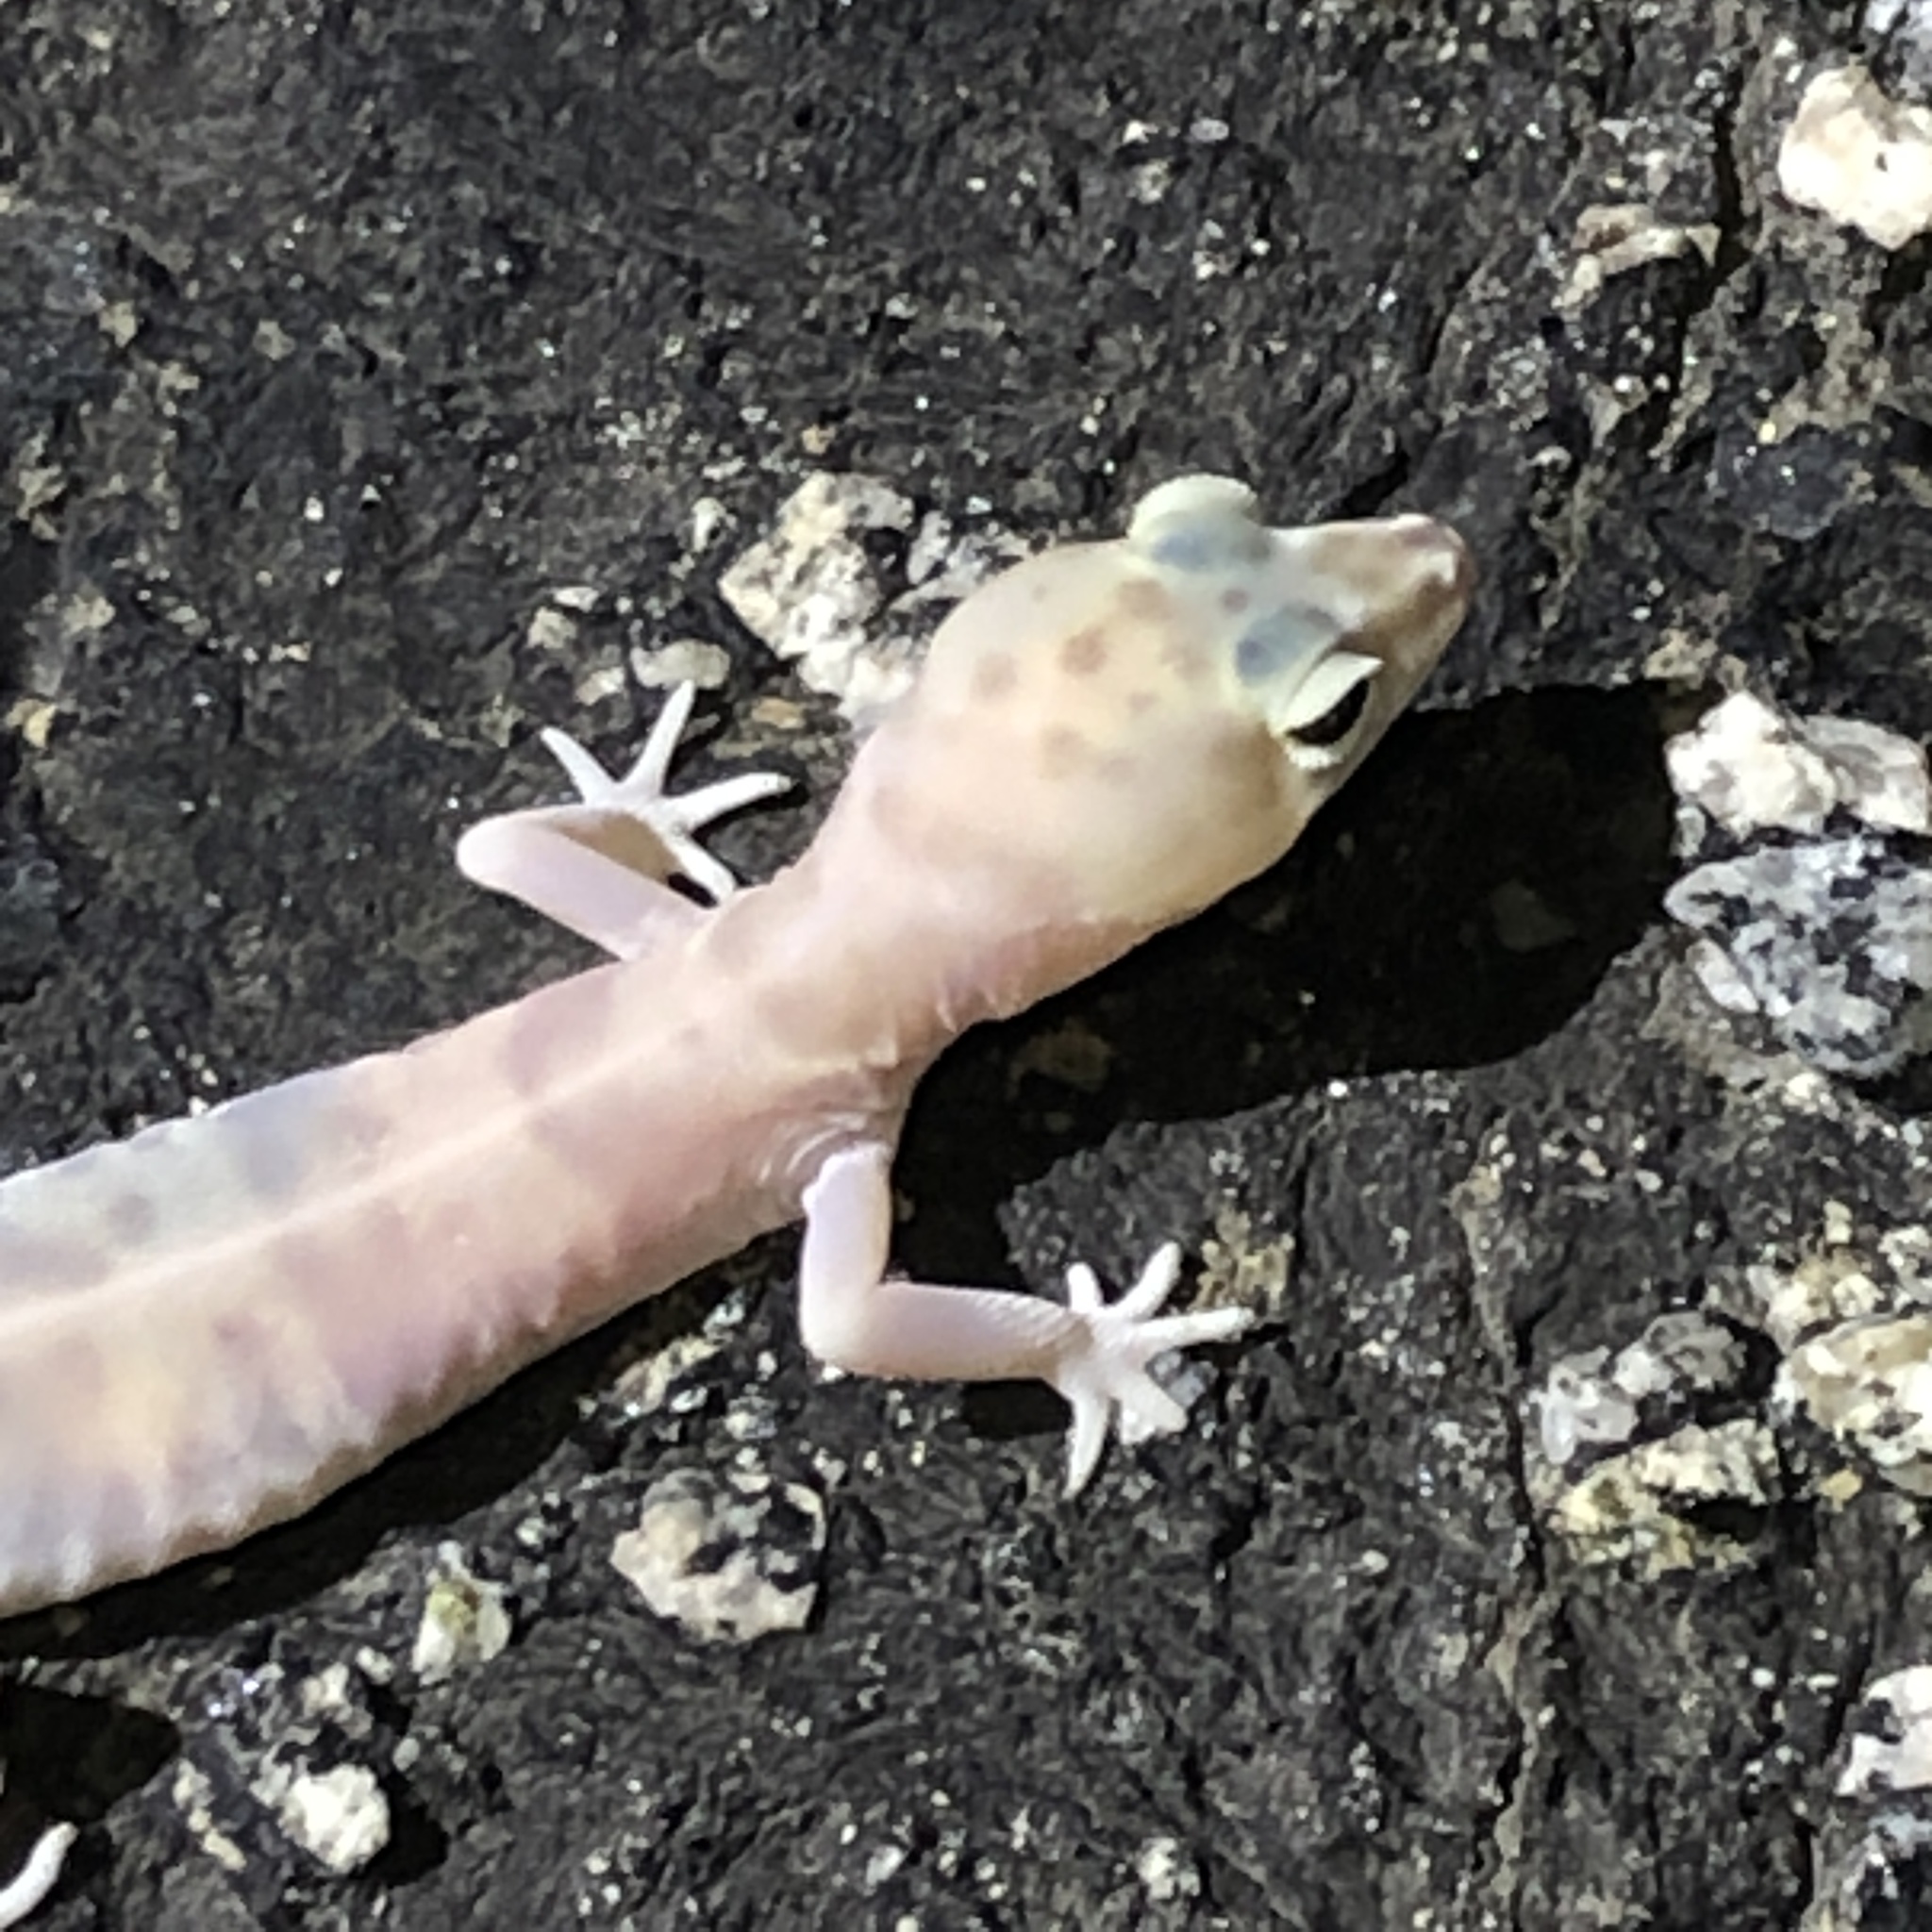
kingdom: Animalia
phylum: Chordata
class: Squamata
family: Eublepharidae
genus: Coleonyx
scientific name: Coleonyx variegatus
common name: Western banded gecko
